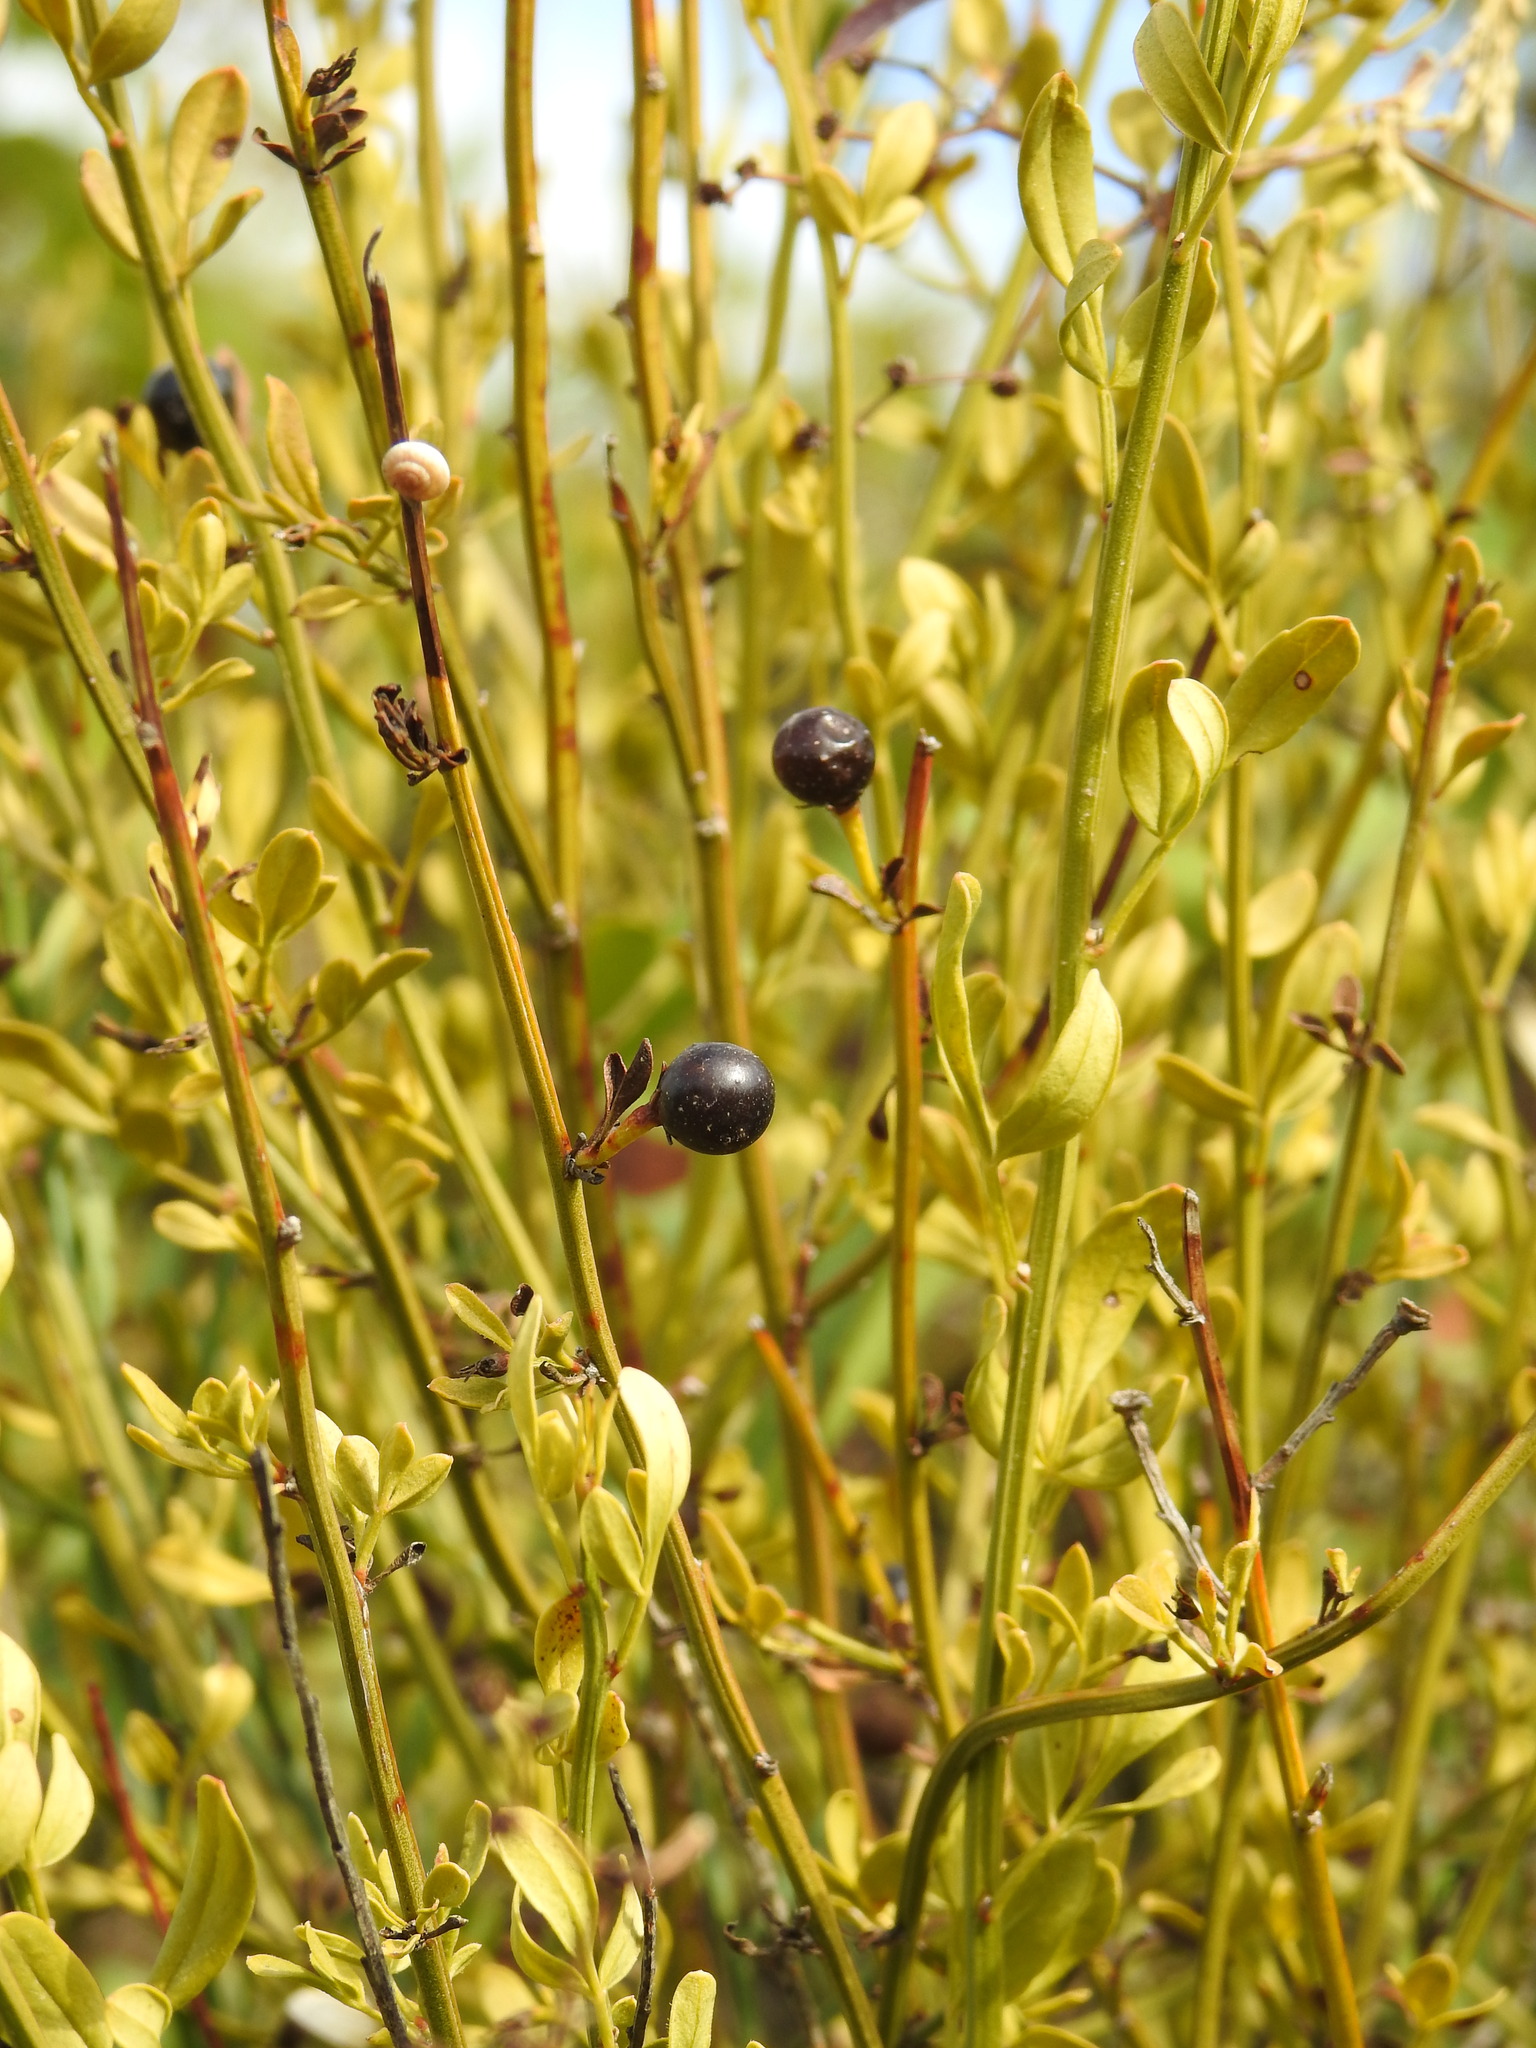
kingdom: Plantae
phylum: Tracheophyta
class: Magnoliopsida
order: Lamiales
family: Oleaceae
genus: Chrysojasminum
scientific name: Chrysojasminum fruticans
